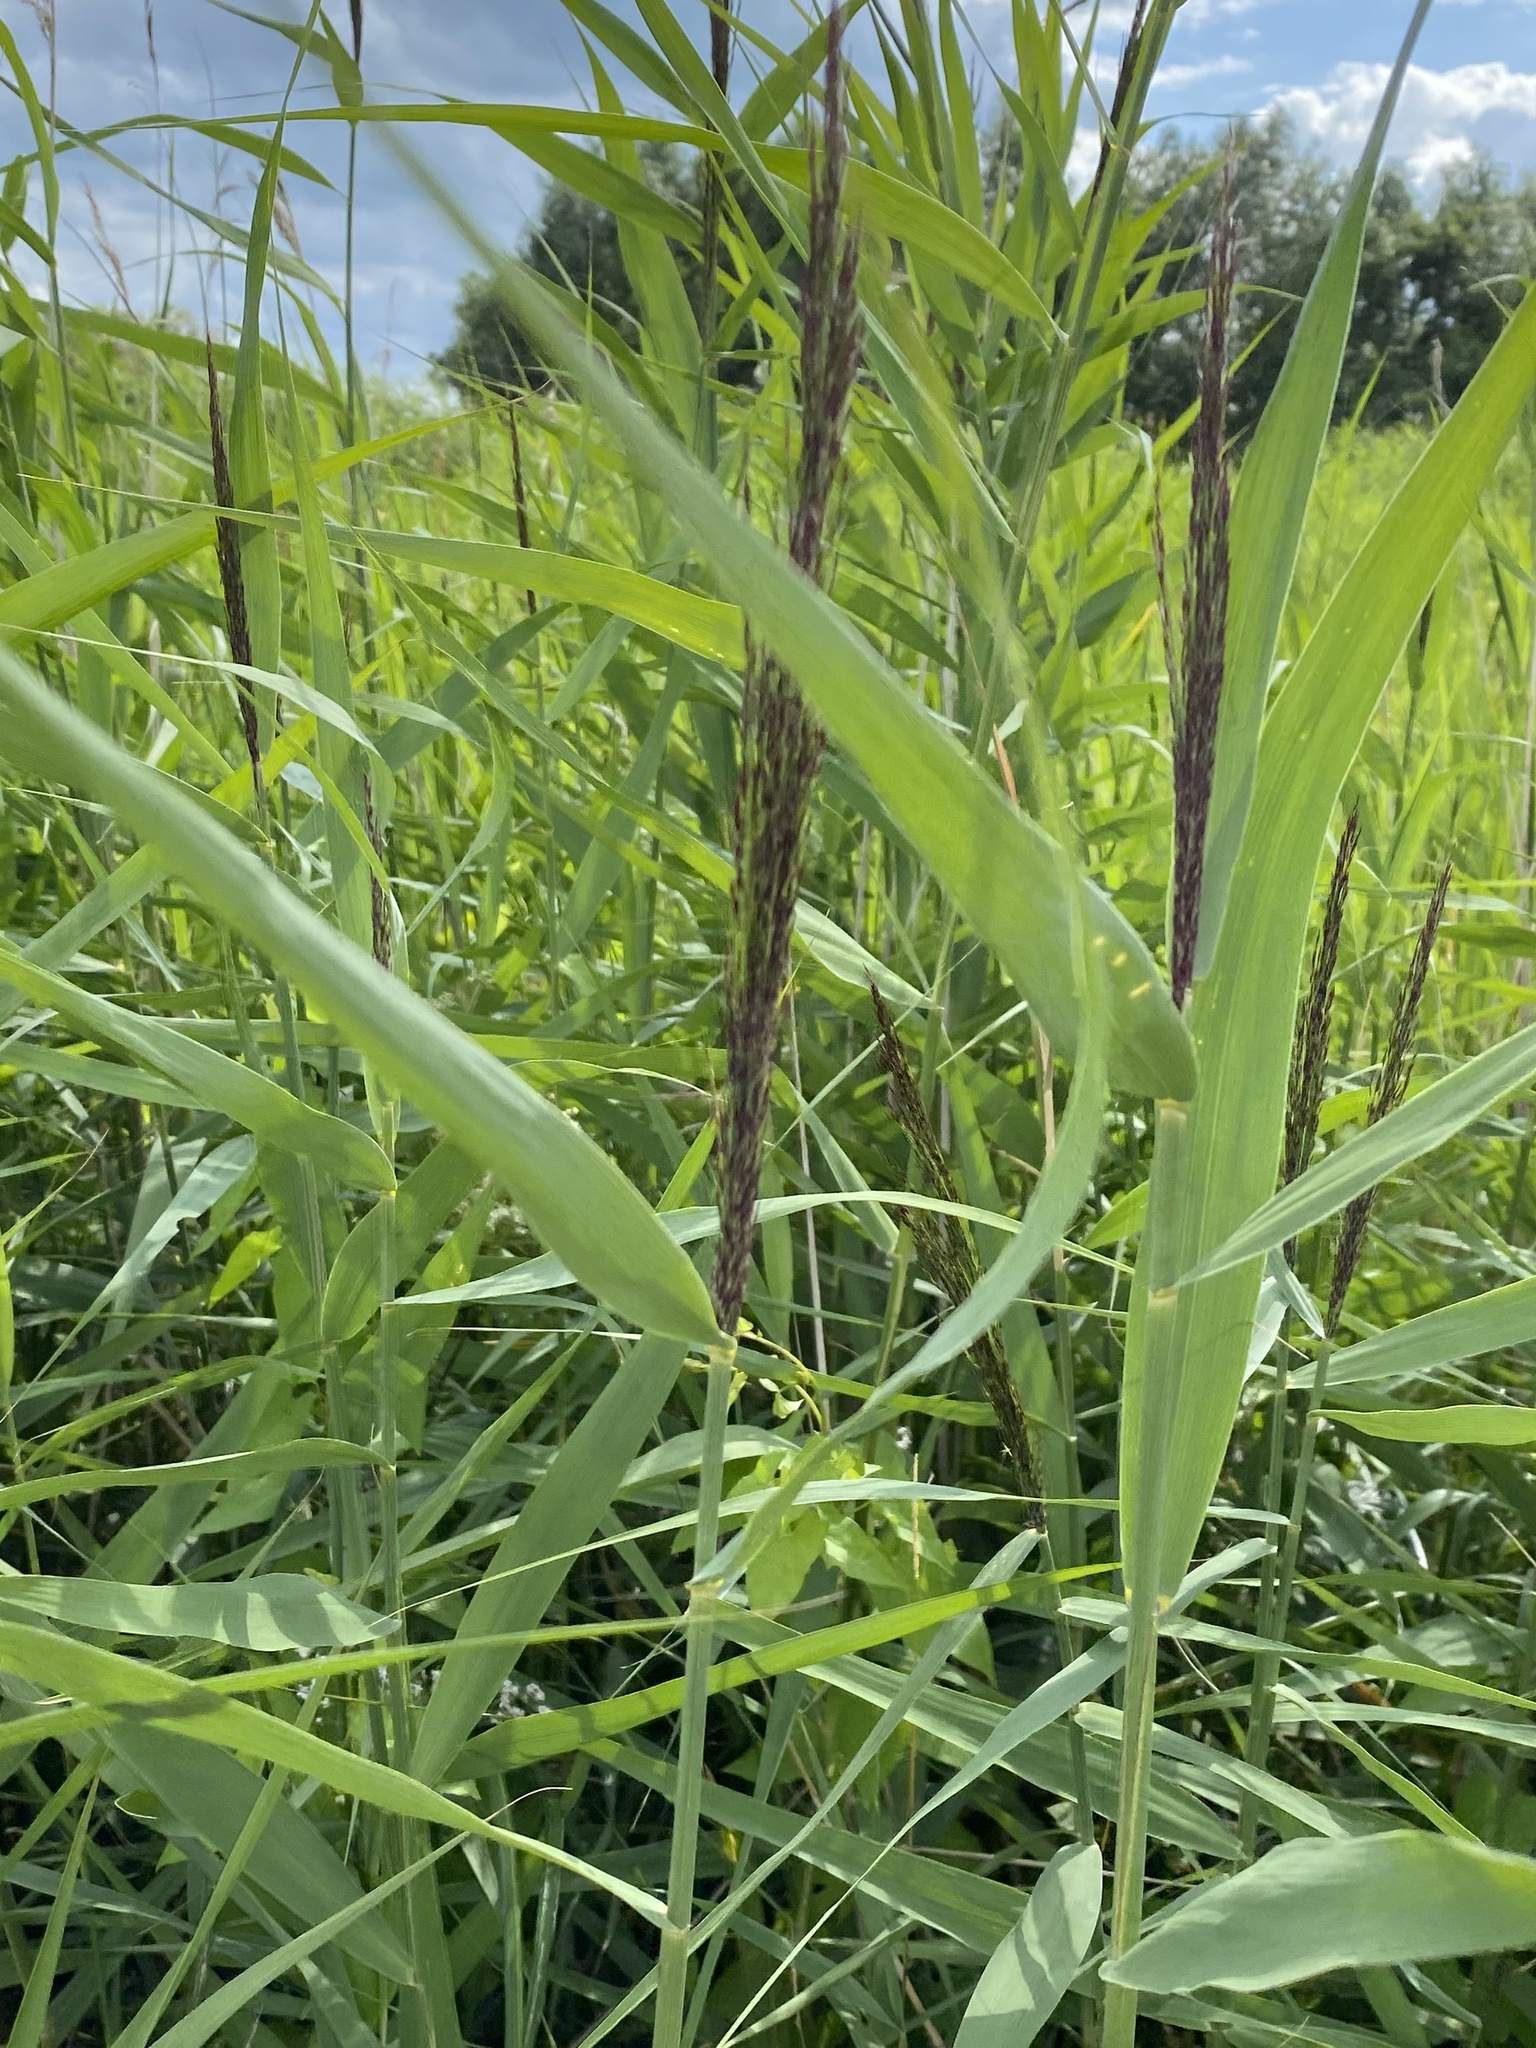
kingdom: Plantae
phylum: Tracheophyta
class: Liliopsida
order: Poales
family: Poaceae
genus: Phragmites
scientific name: Phragmites australis
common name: Common reed
